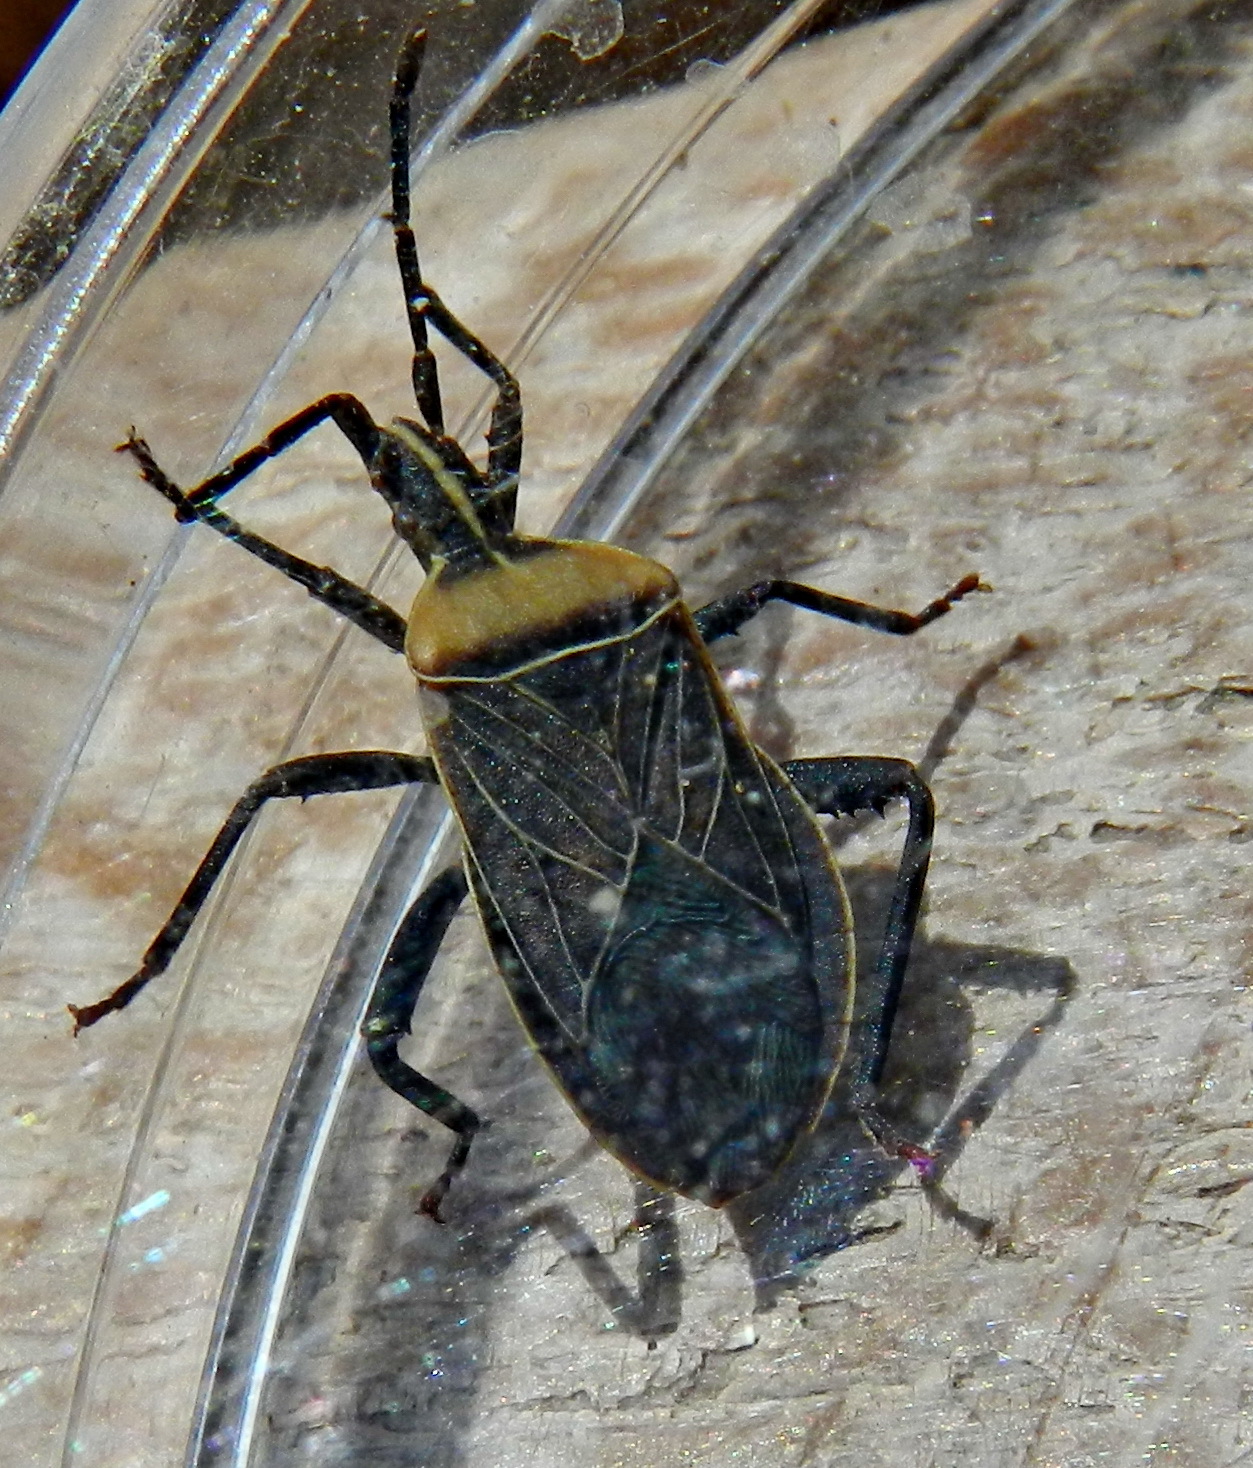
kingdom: Animalia
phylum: Arthropoda
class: Insecta
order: Hemiptera
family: Coreidae
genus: Chelinidea
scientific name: Chelinidea vittiger
